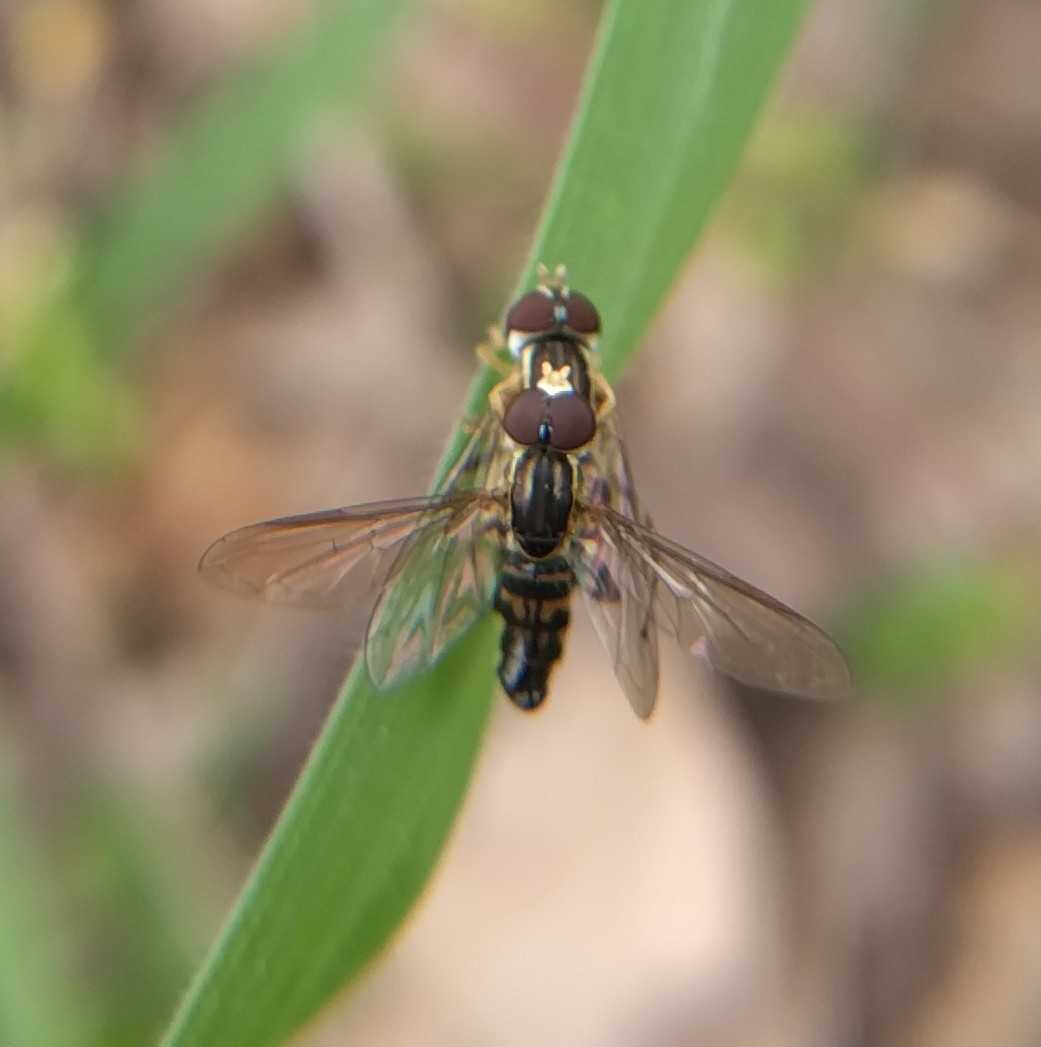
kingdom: Animalia
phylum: Arthropoda
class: Insecta
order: Diptera
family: Syrphidae
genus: Toxomerus
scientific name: Toxomerus geminatus
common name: Eastern calligrapher
